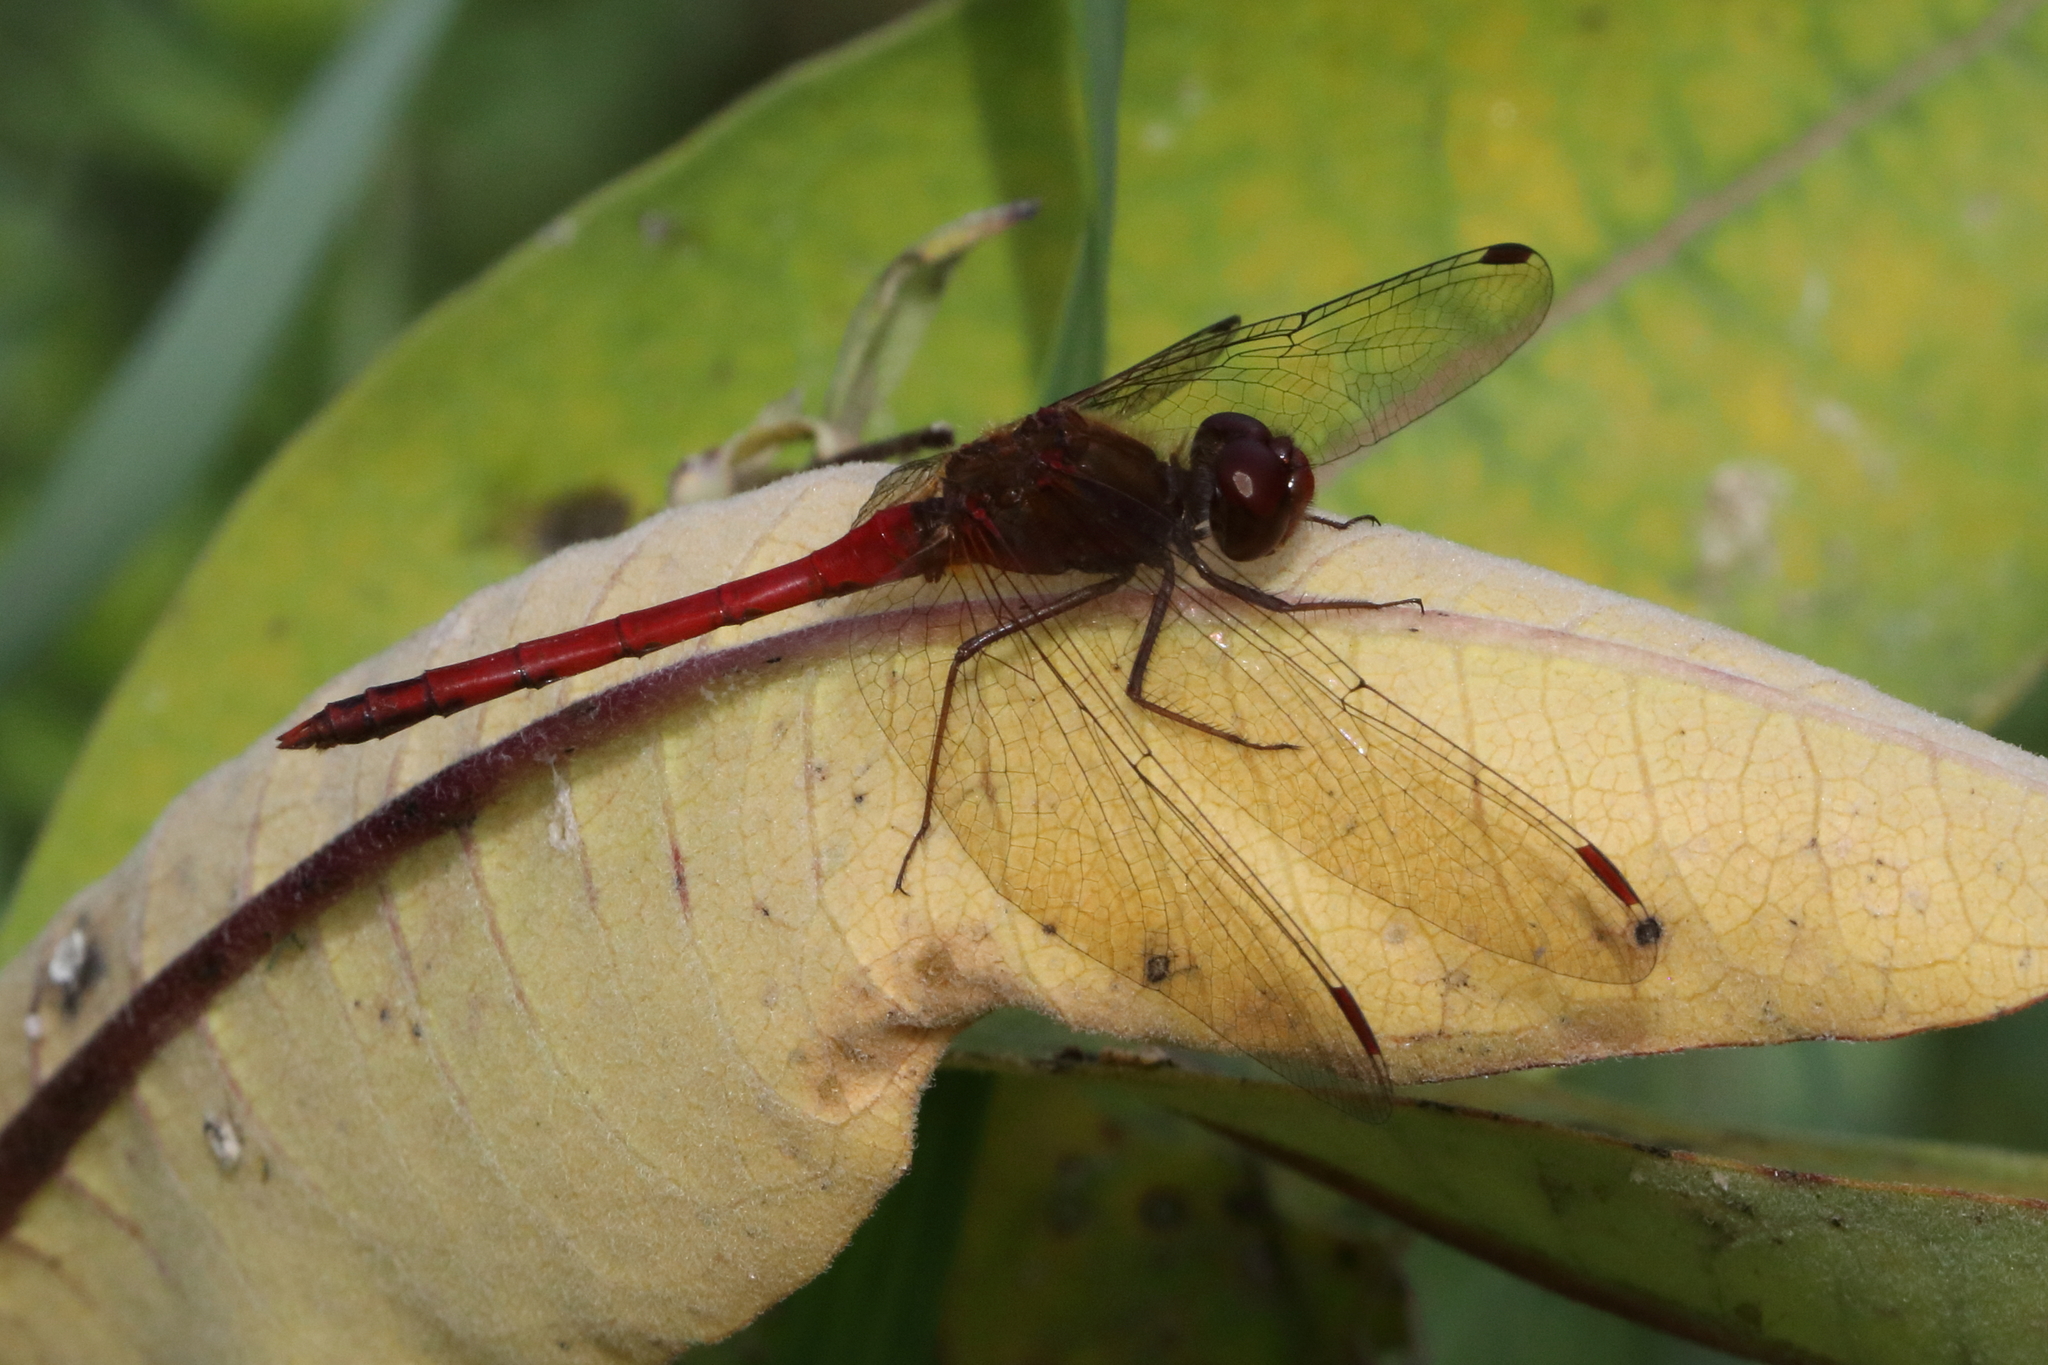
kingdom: Animalia
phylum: Arthropoda
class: Insecta
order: Odonata
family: Libellulidae
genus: Sympetrum
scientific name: Sympetrum vicinum
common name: Autumn meadowhawk
